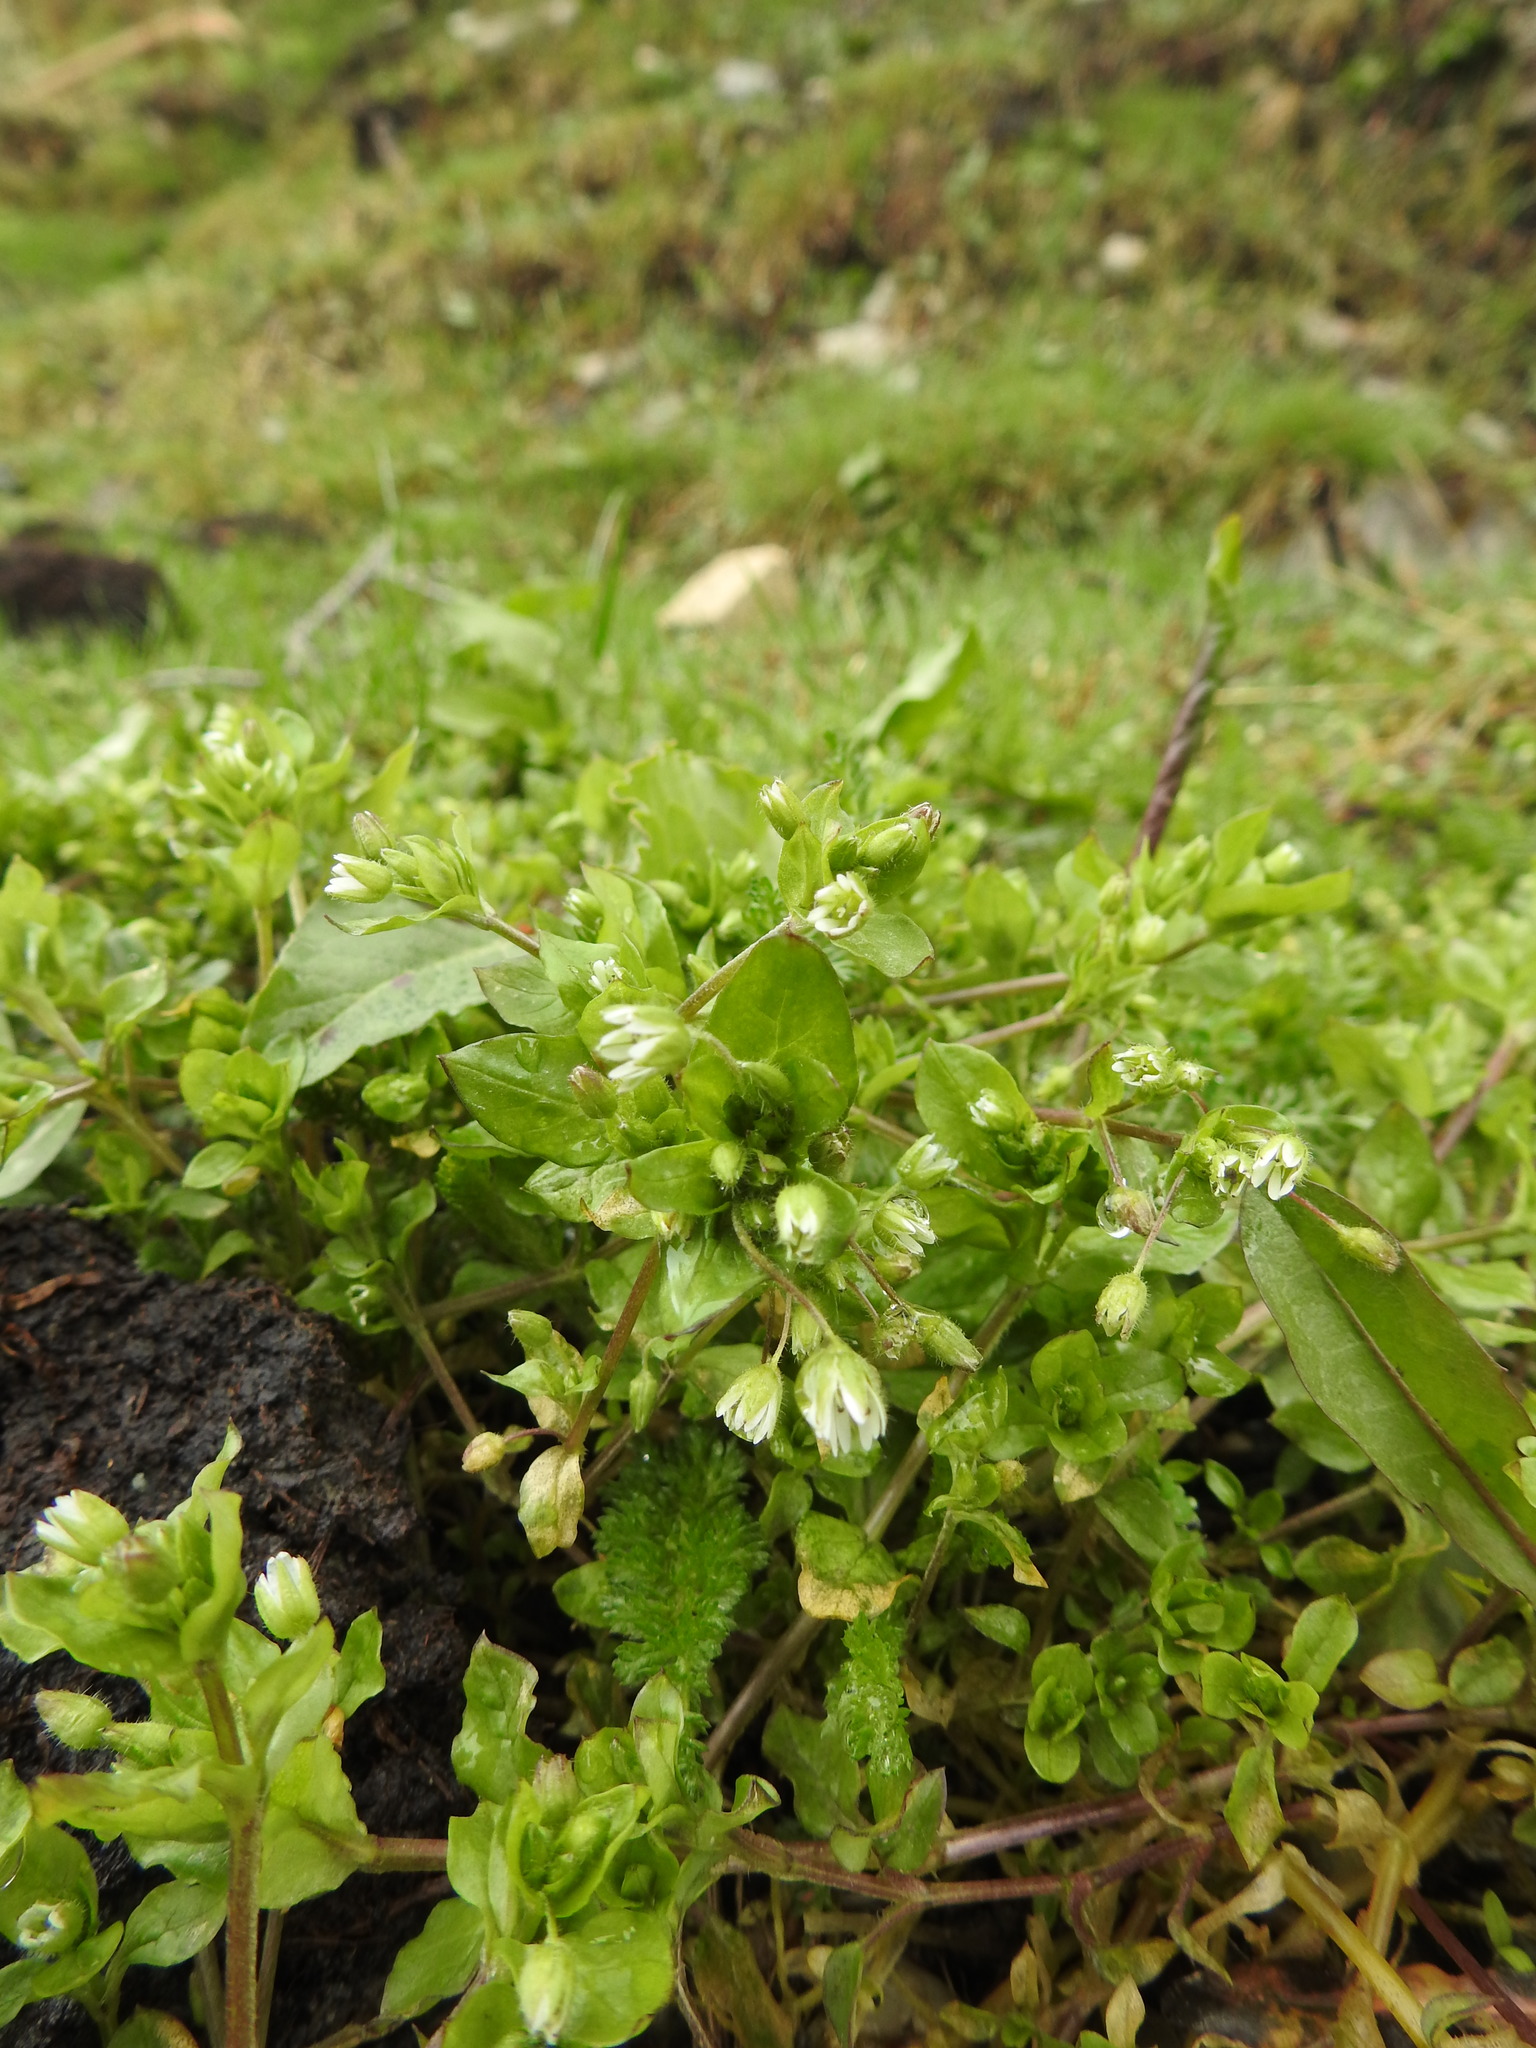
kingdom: Plantae
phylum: Tracheophyta
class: Magnoliopsida
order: Caryophyllales
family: Caryophyllaceae
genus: Stellaria
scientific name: Stellaria media
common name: Common chickweed
